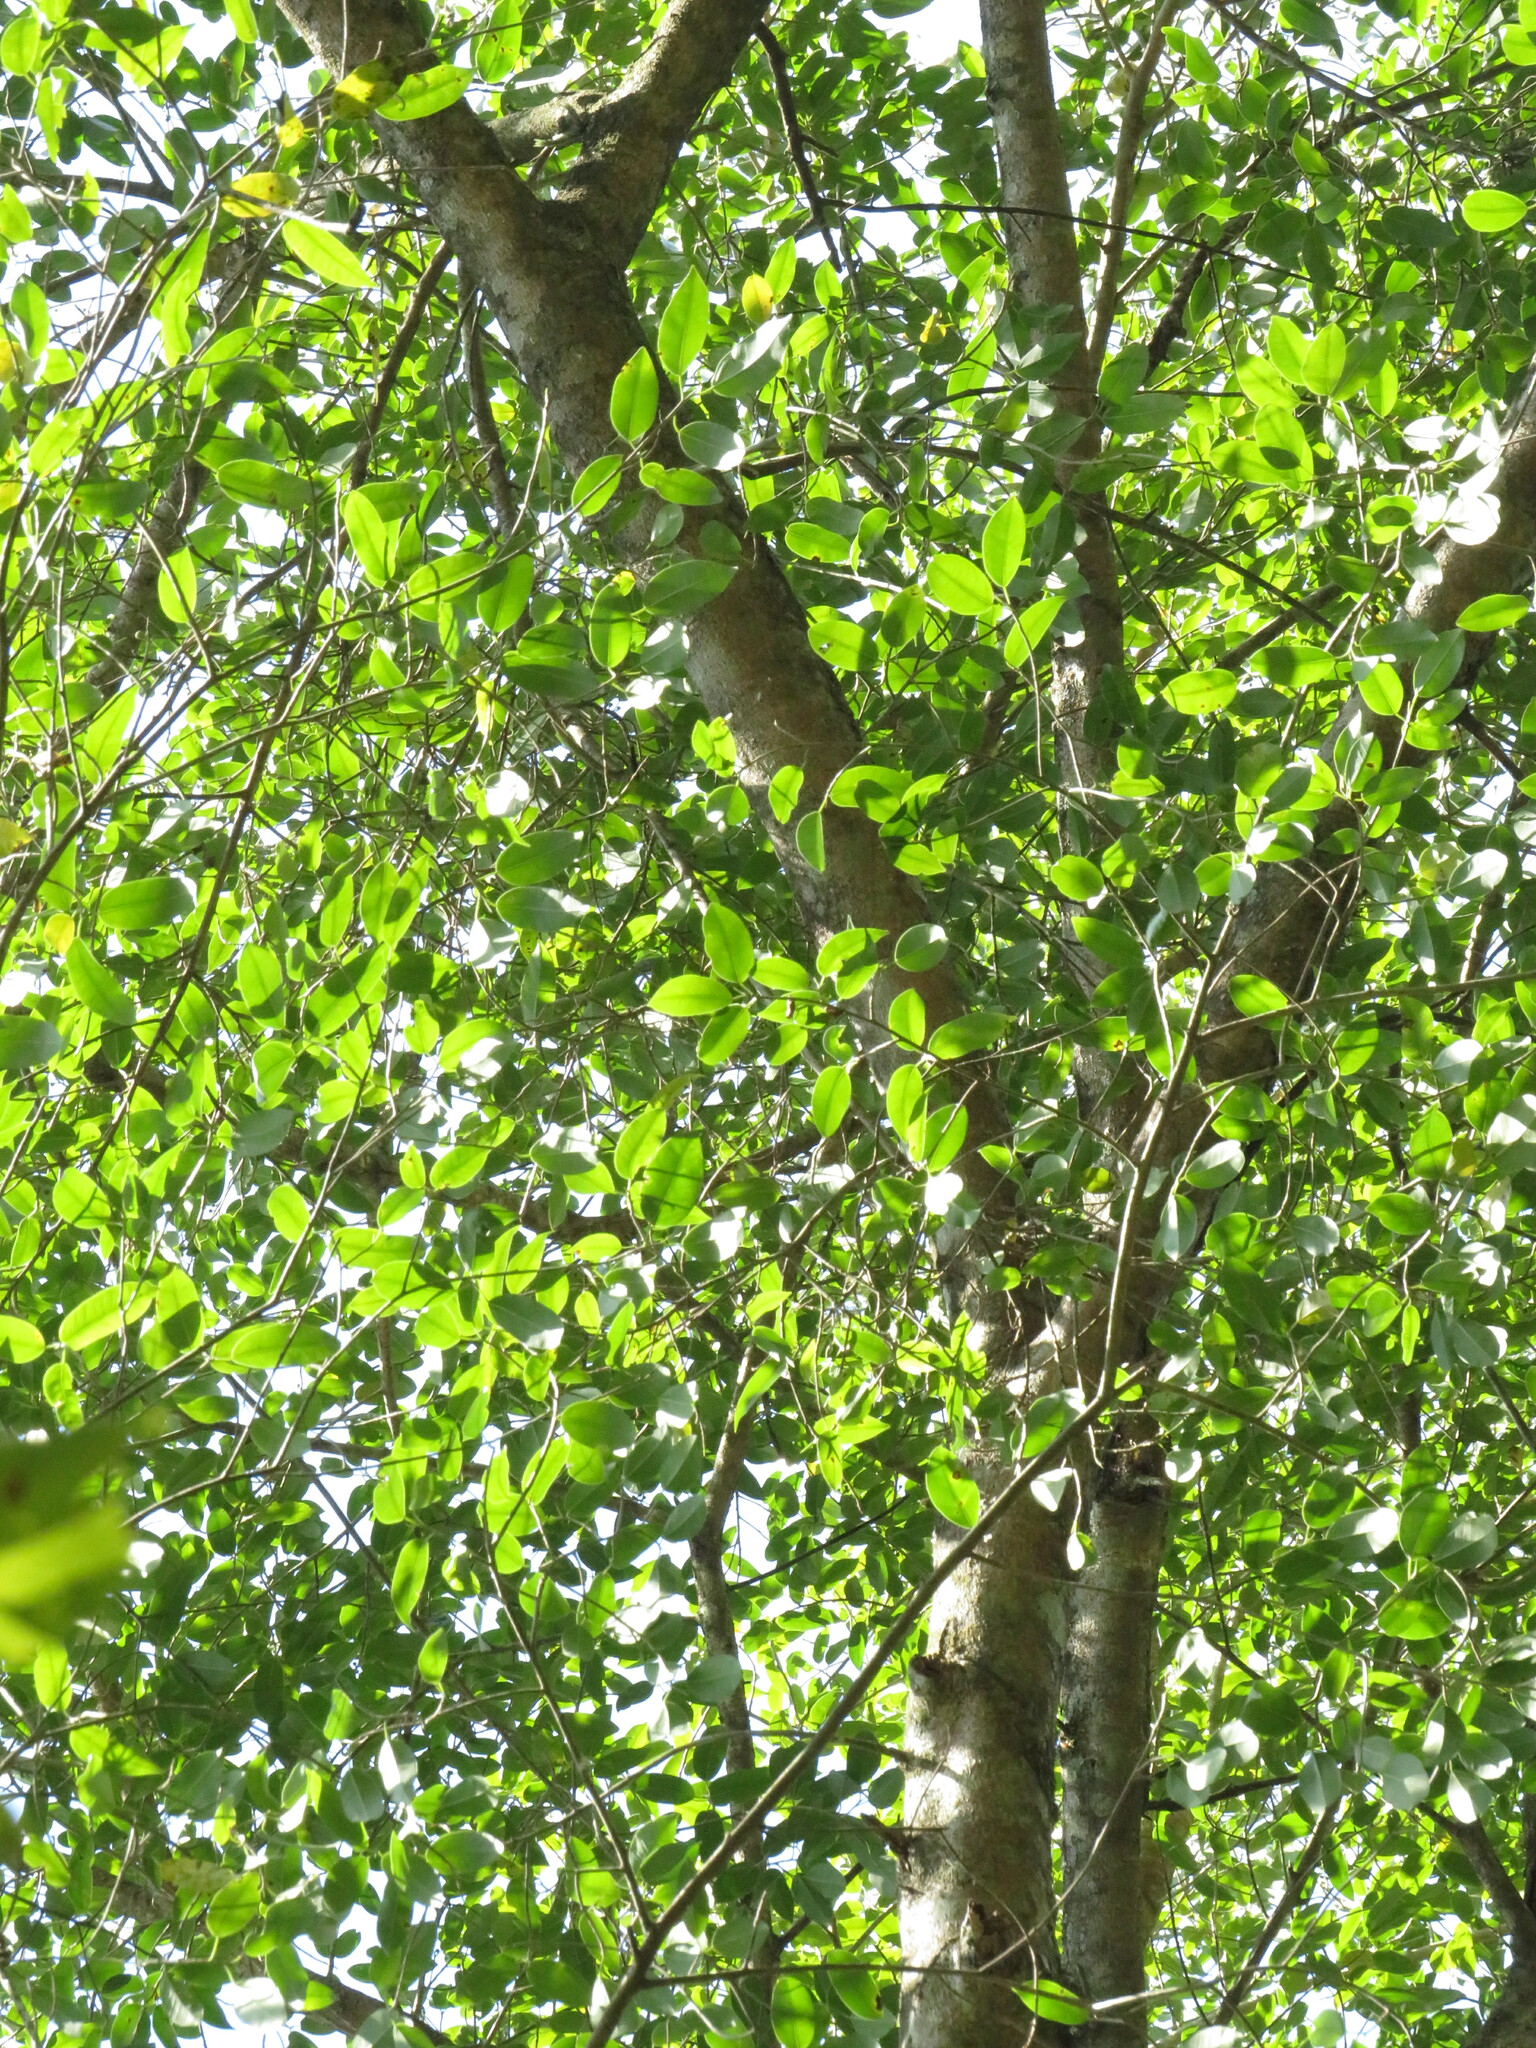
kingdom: Plantae
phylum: Tracheophyta
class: Magnoliopsida
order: Rosales
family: Moraceae
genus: Ficus
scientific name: Ficus maroma
